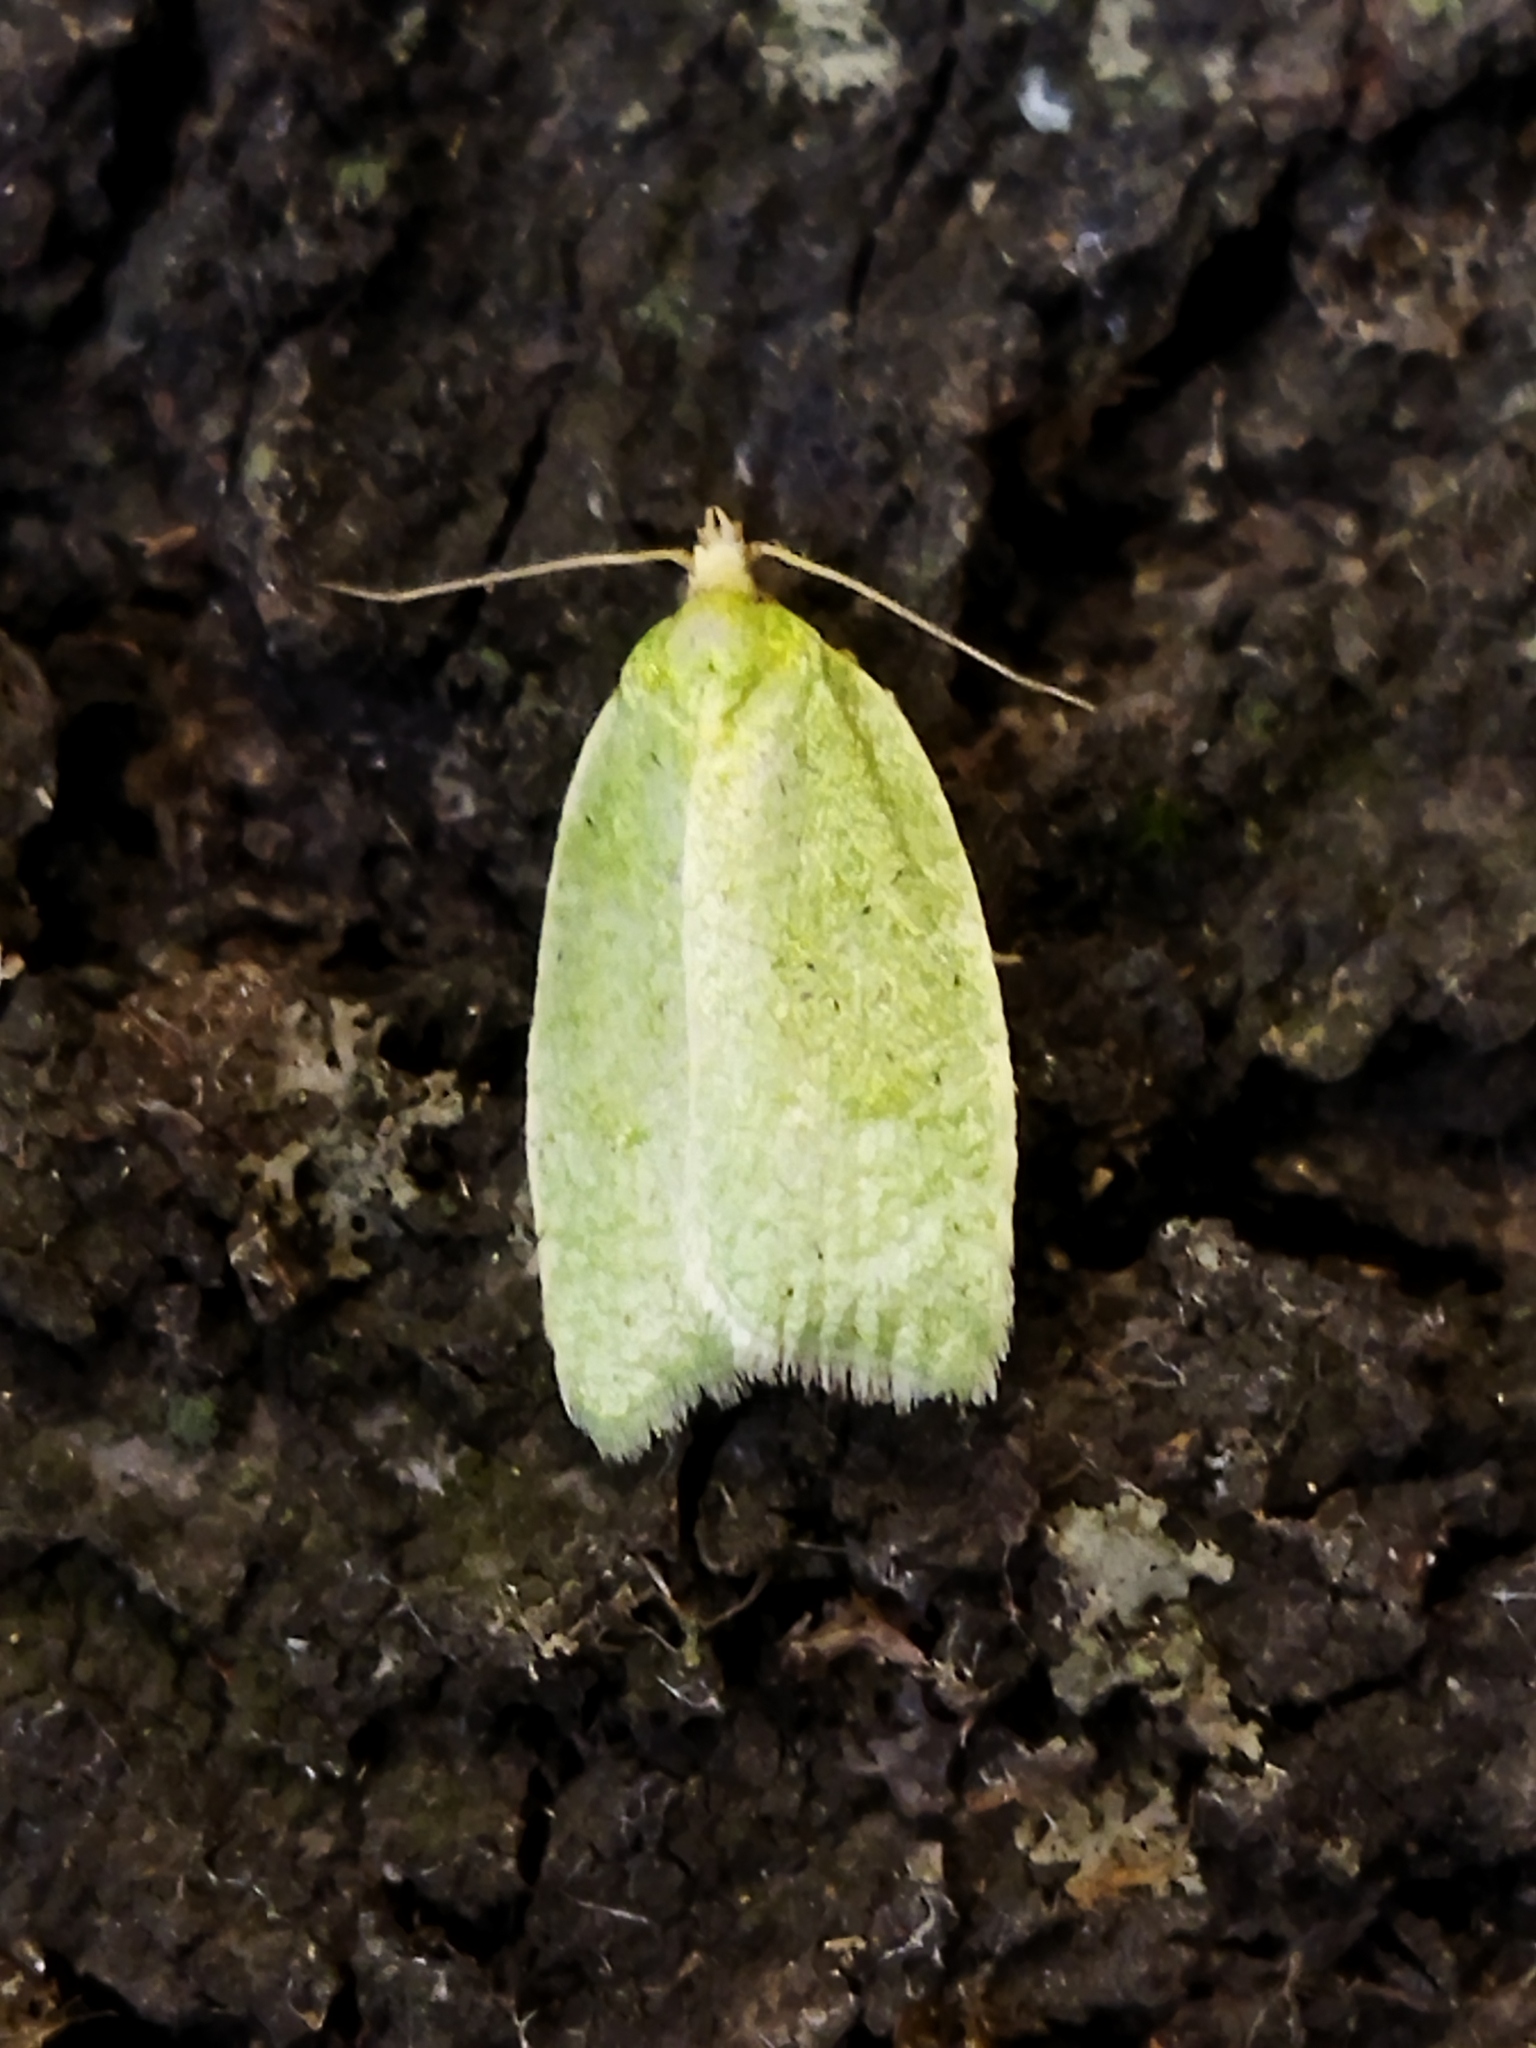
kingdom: Animalia
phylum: Arthropoda
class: Insecta
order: Lepidoptera
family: Tortricidae
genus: Tortrix
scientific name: Tortrix viridana
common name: Green oak tortrix
